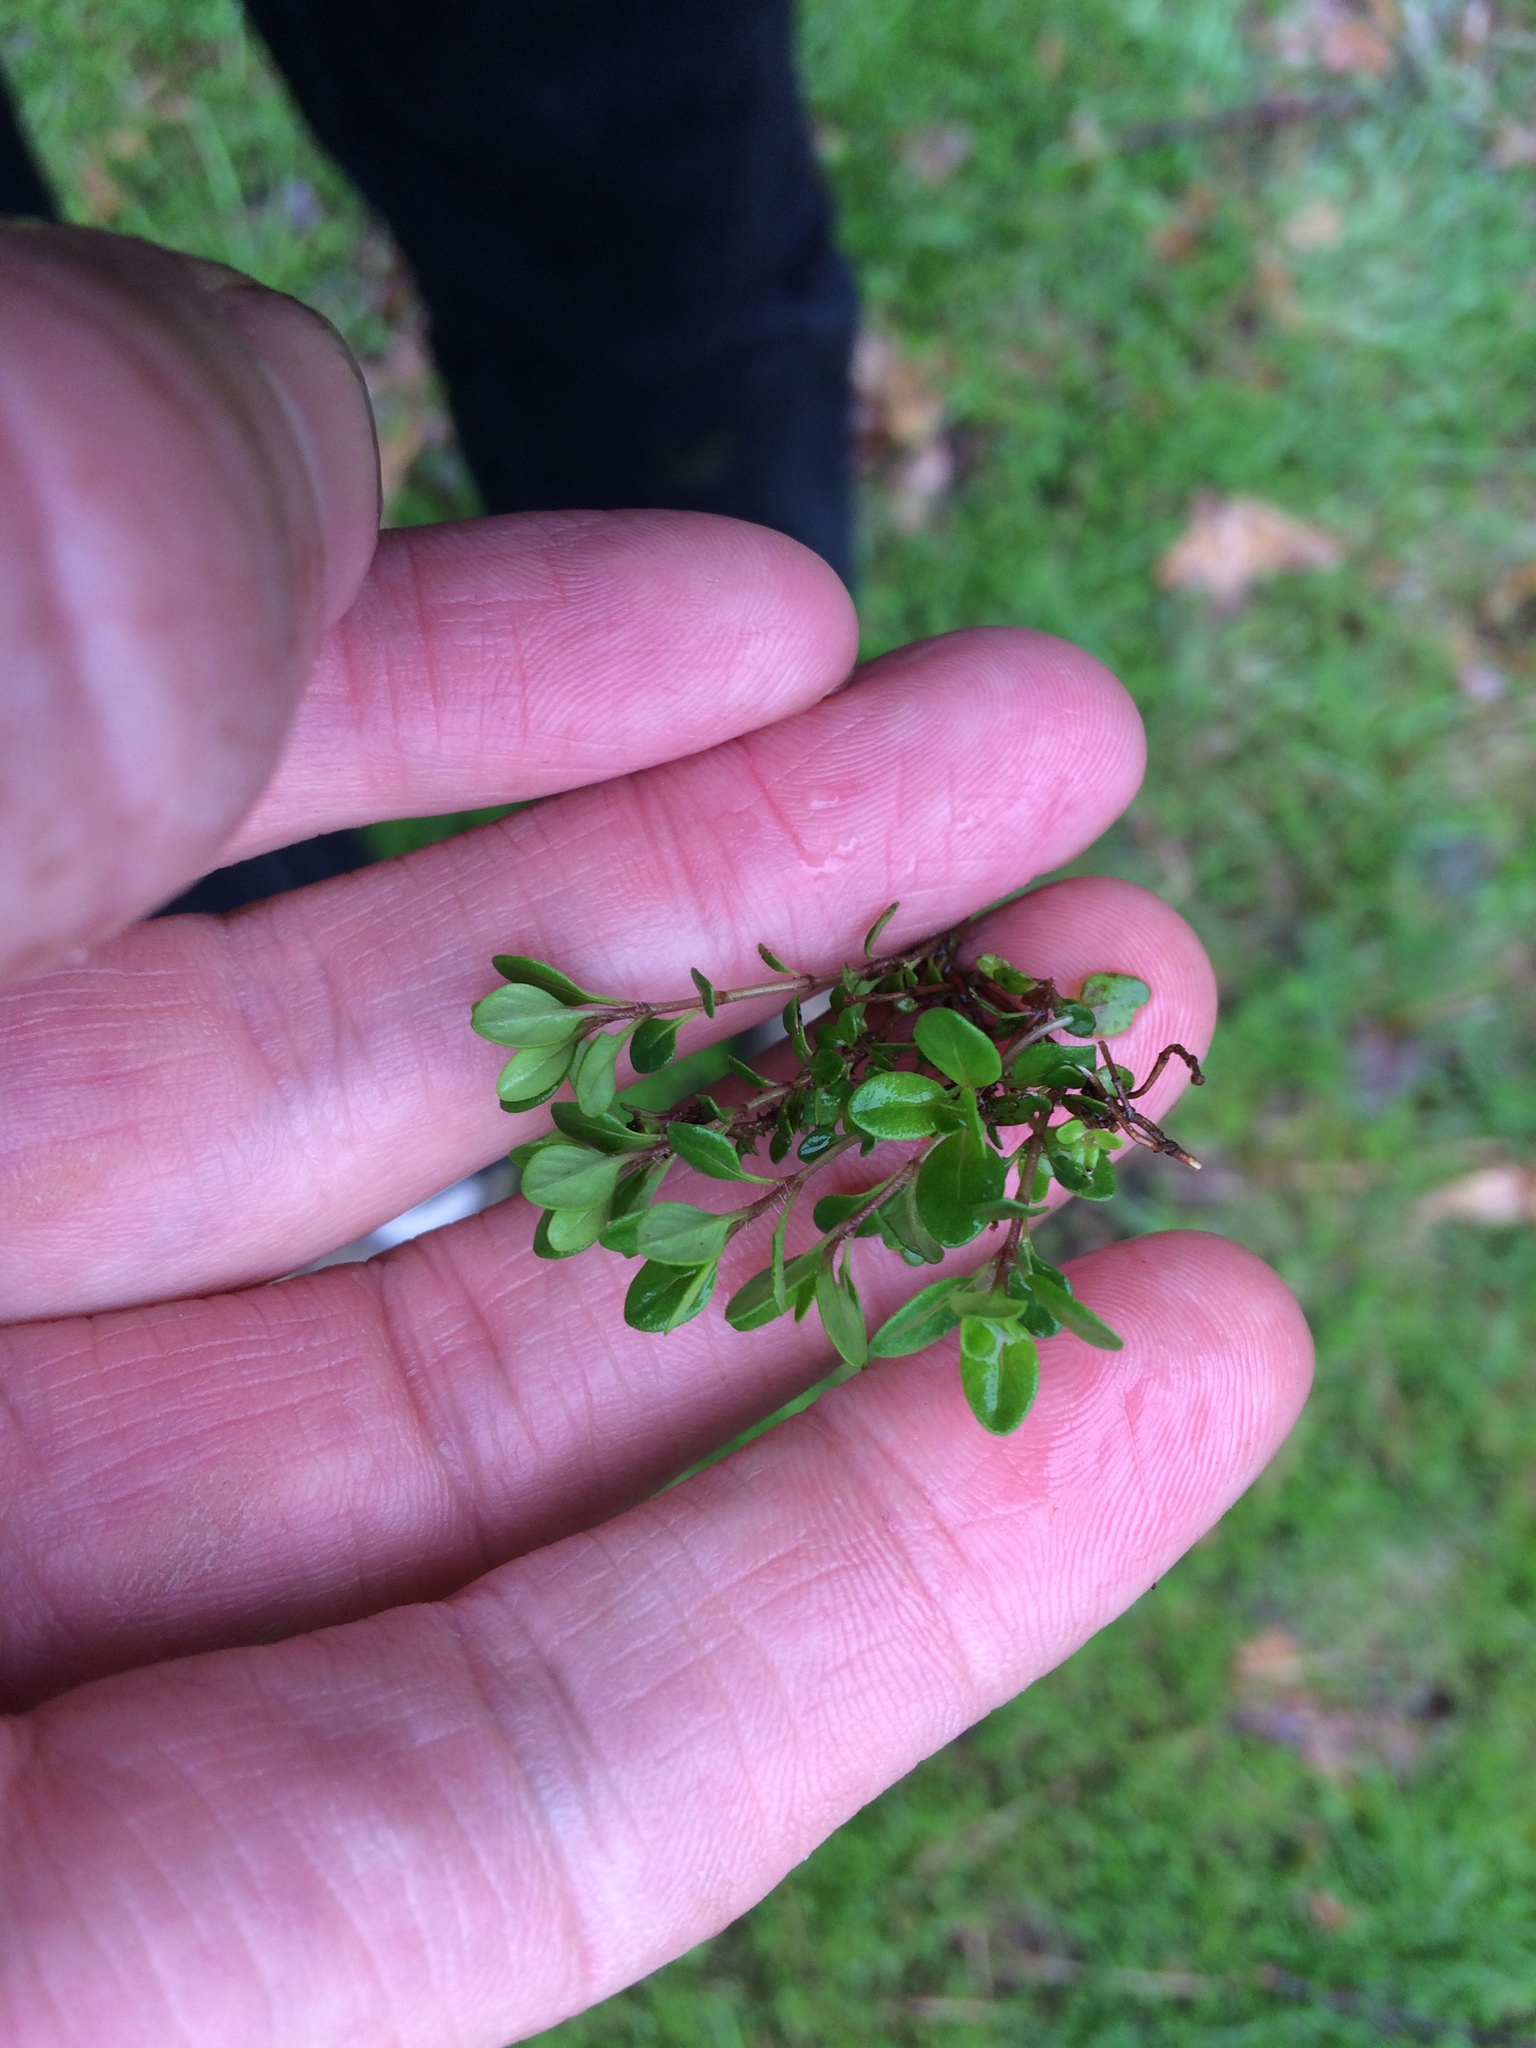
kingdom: Plantae
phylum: Tracheophyta
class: Magnoliopsida
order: Lamiales
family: Lamiaceae
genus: Thymus
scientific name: Thymus pulegioides
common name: Large thyme
